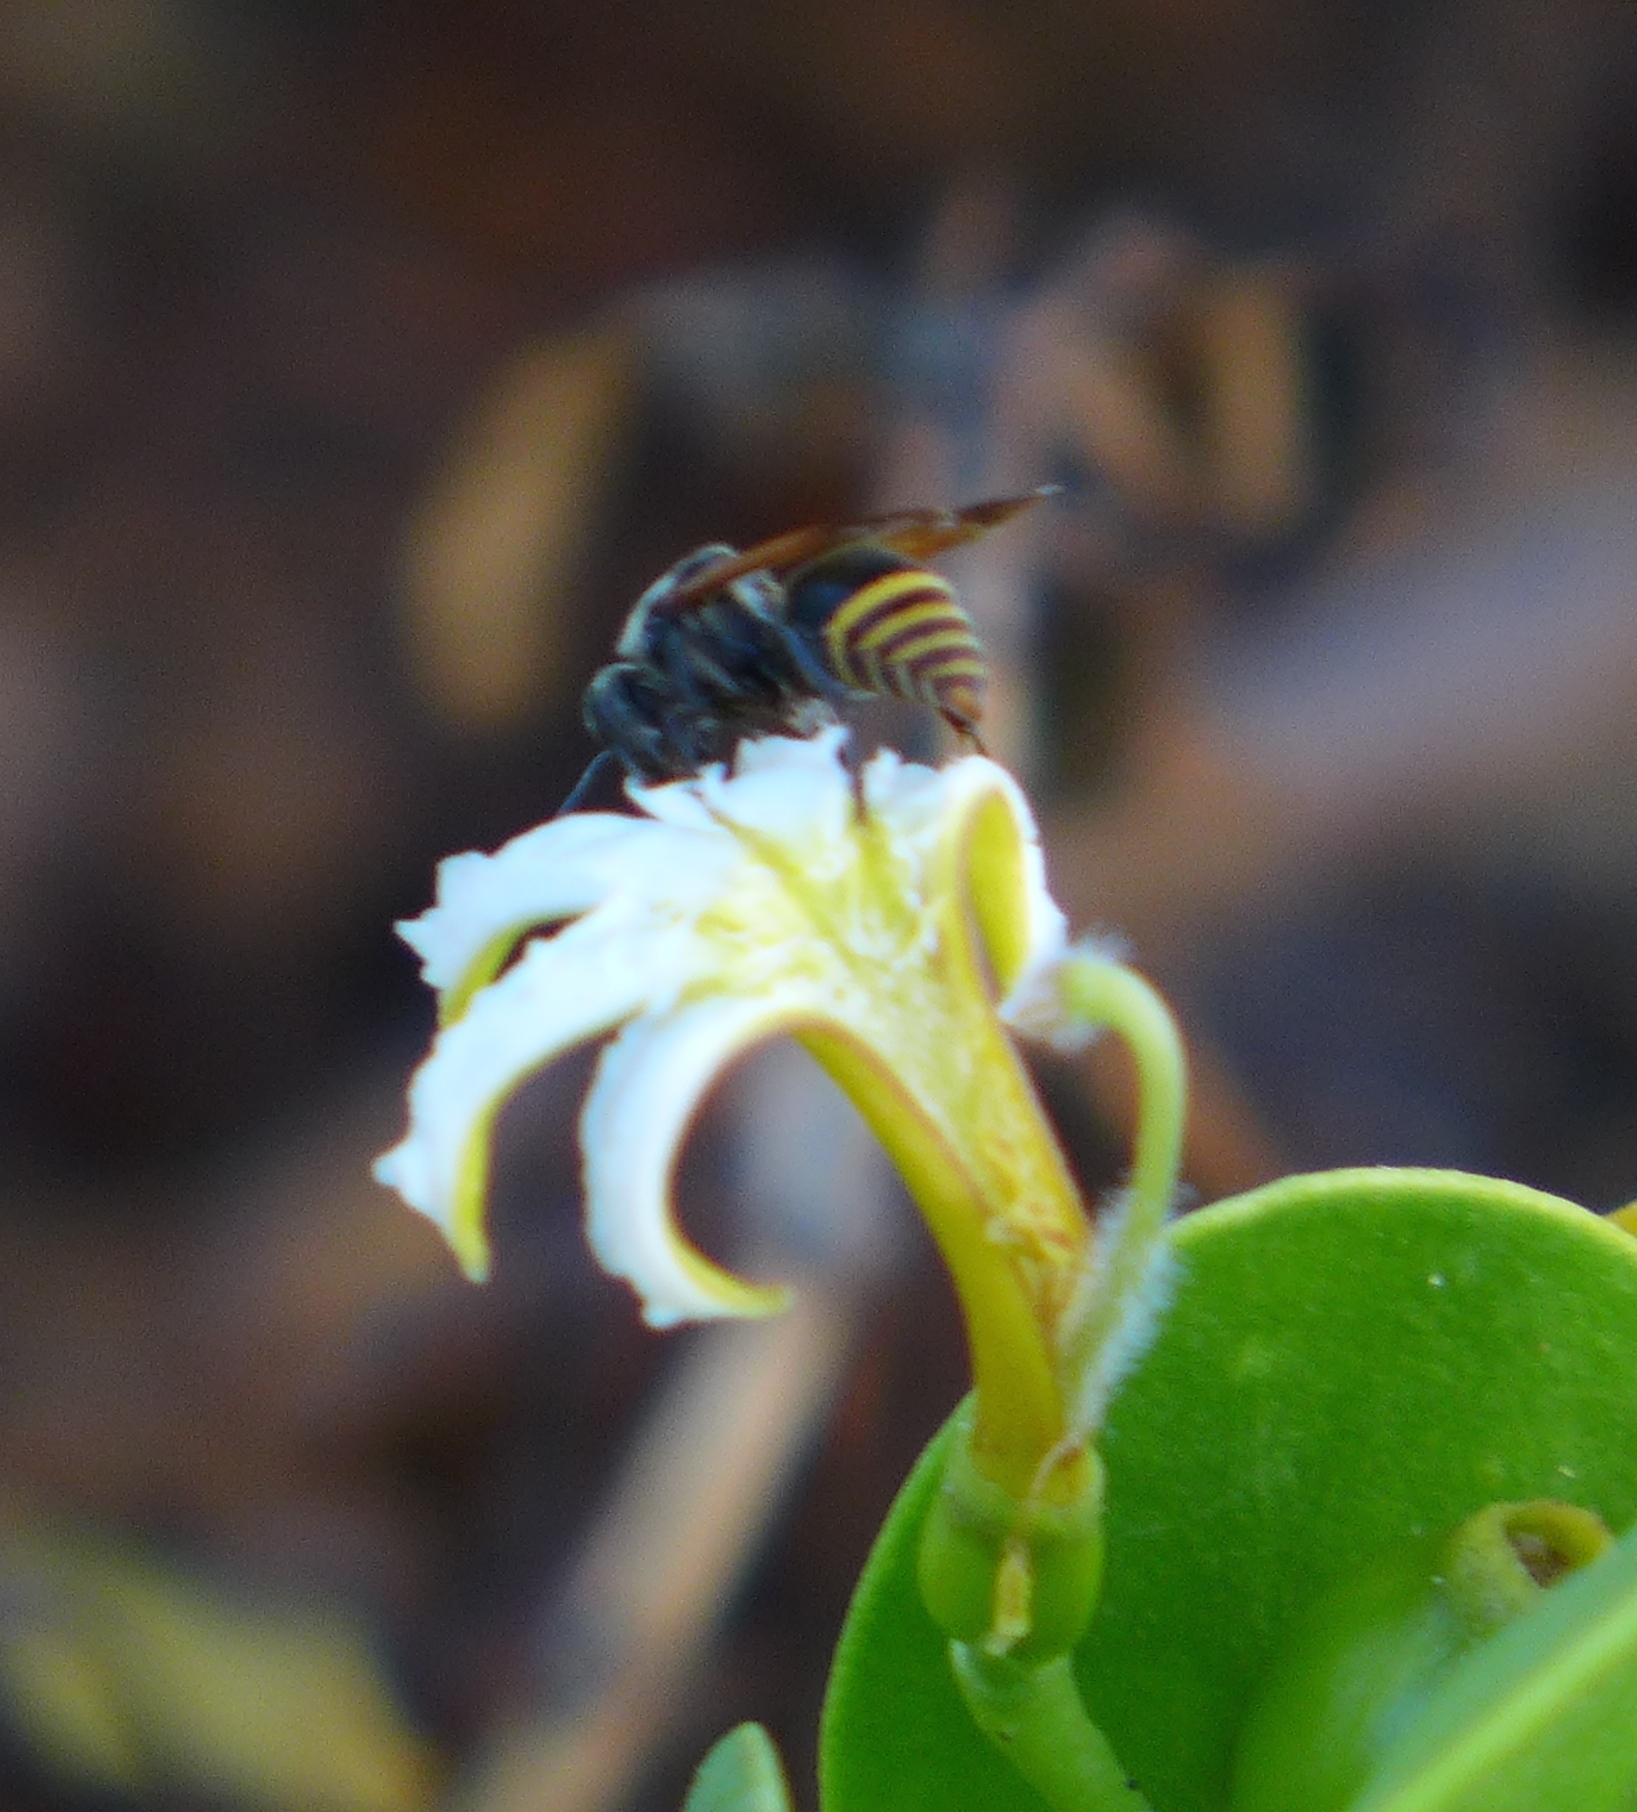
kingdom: Animalia
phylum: Arthropoda
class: Insecta
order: Hymenoptera
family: Vespidae
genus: Brachygastra
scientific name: Brachygastra lecheguana
